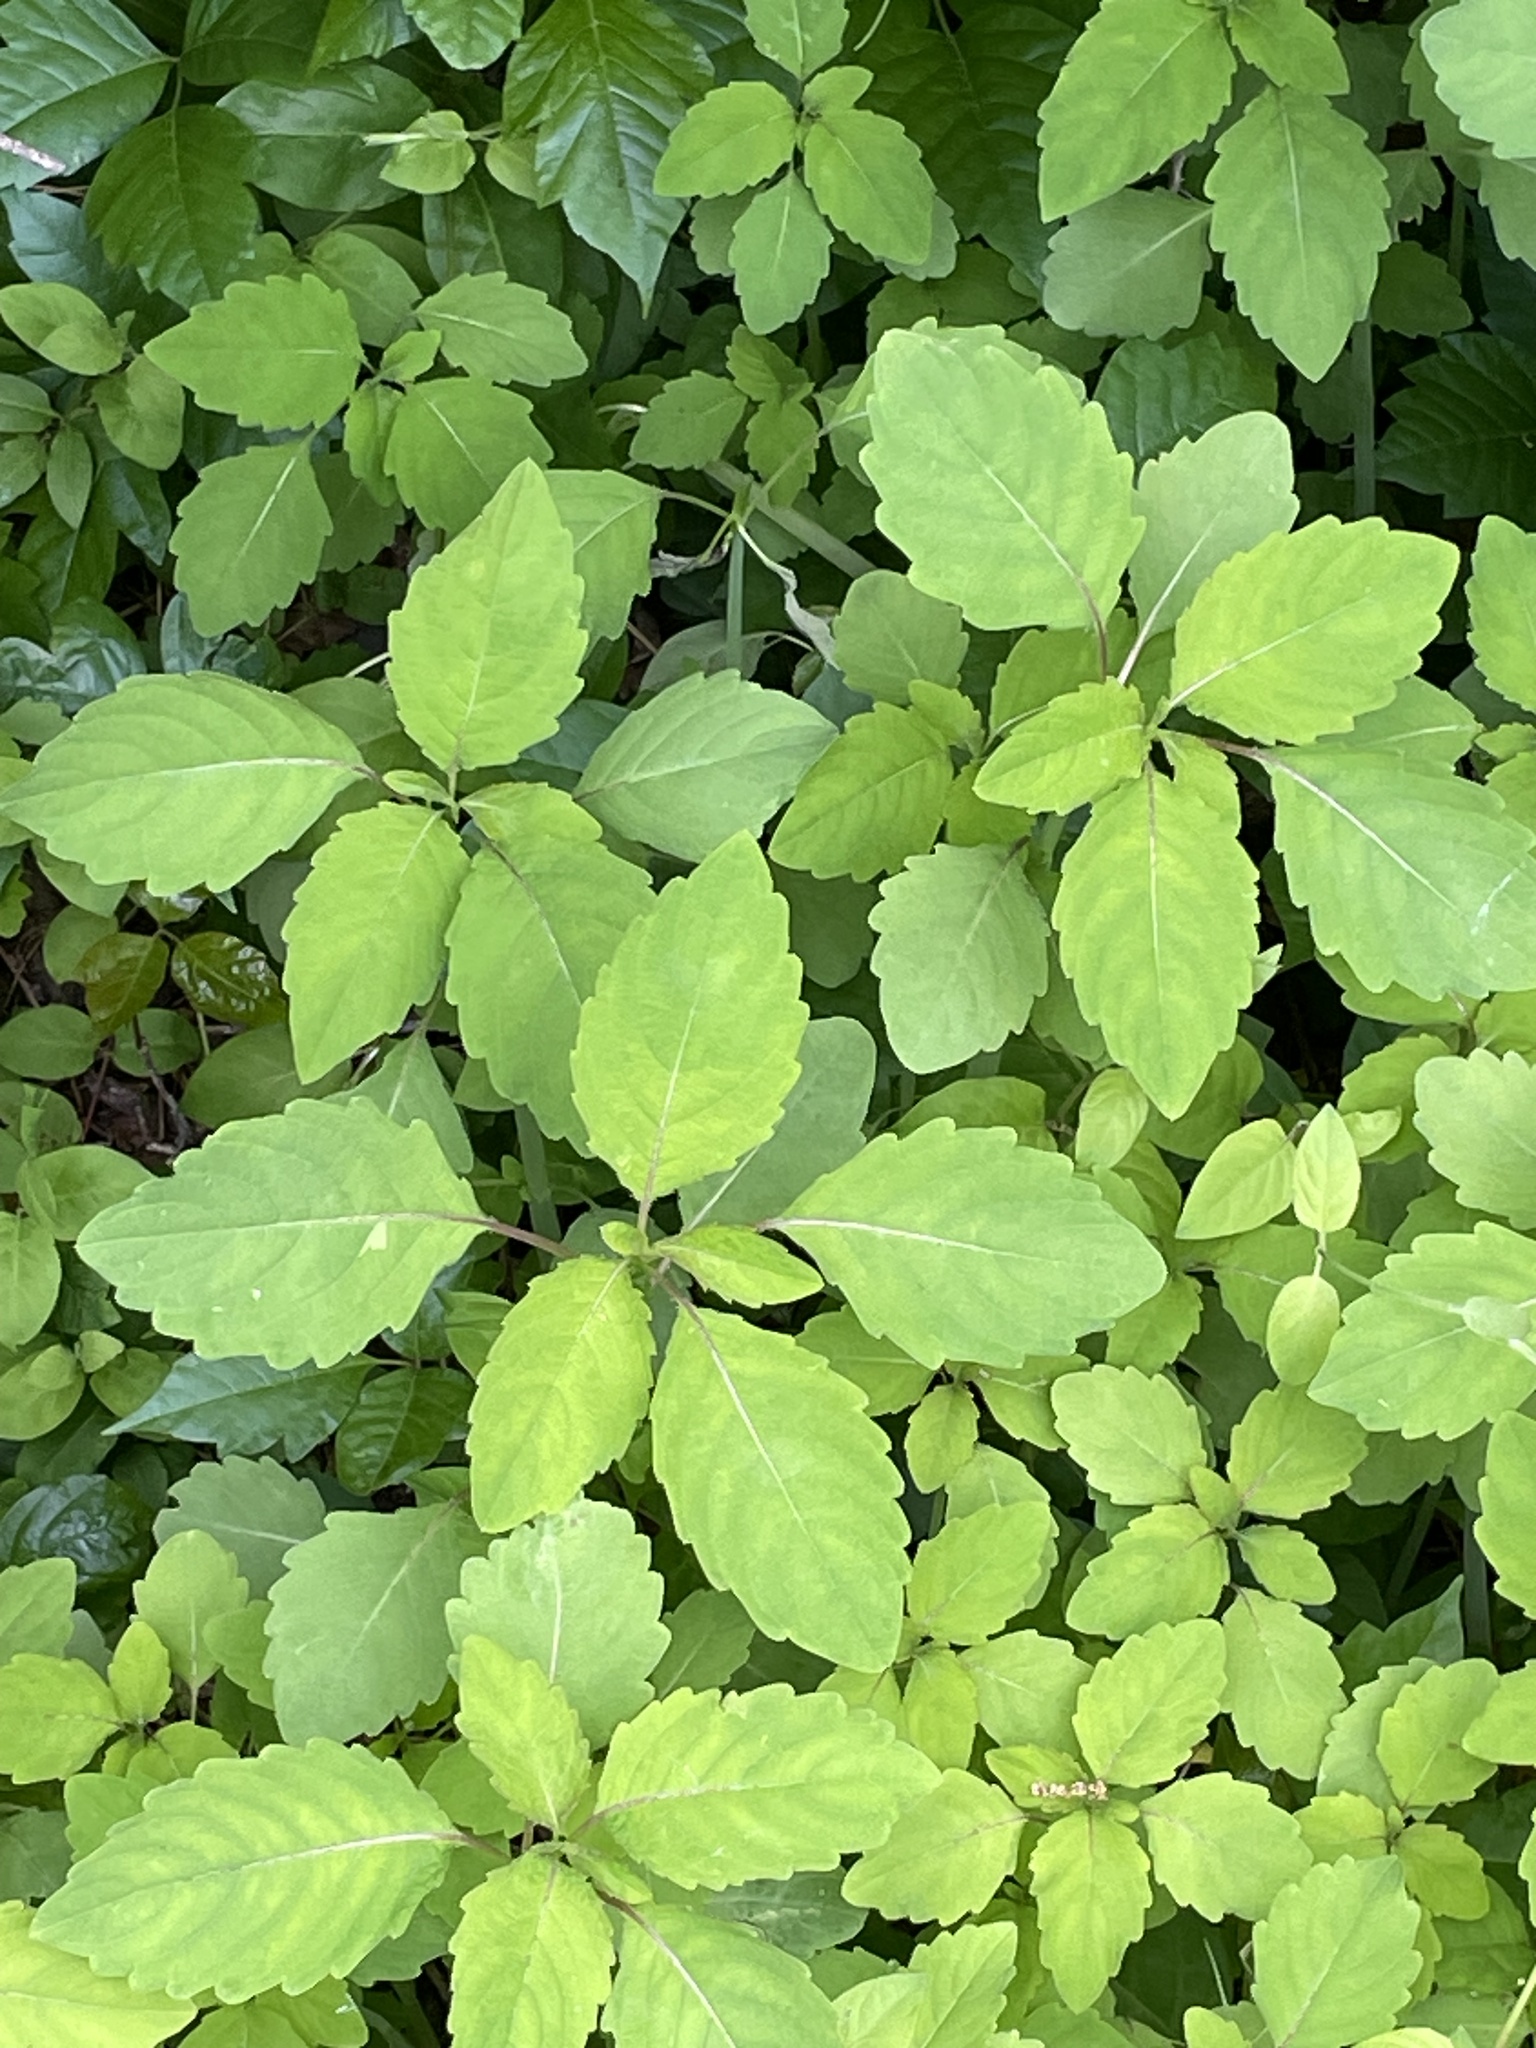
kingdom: Plantae
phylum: Tracheophyta
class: Magnoliopsida
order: Ericales
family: Balsaminaceae
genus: Impatiens
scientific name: Impatiens capensis
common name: Orange balsam
